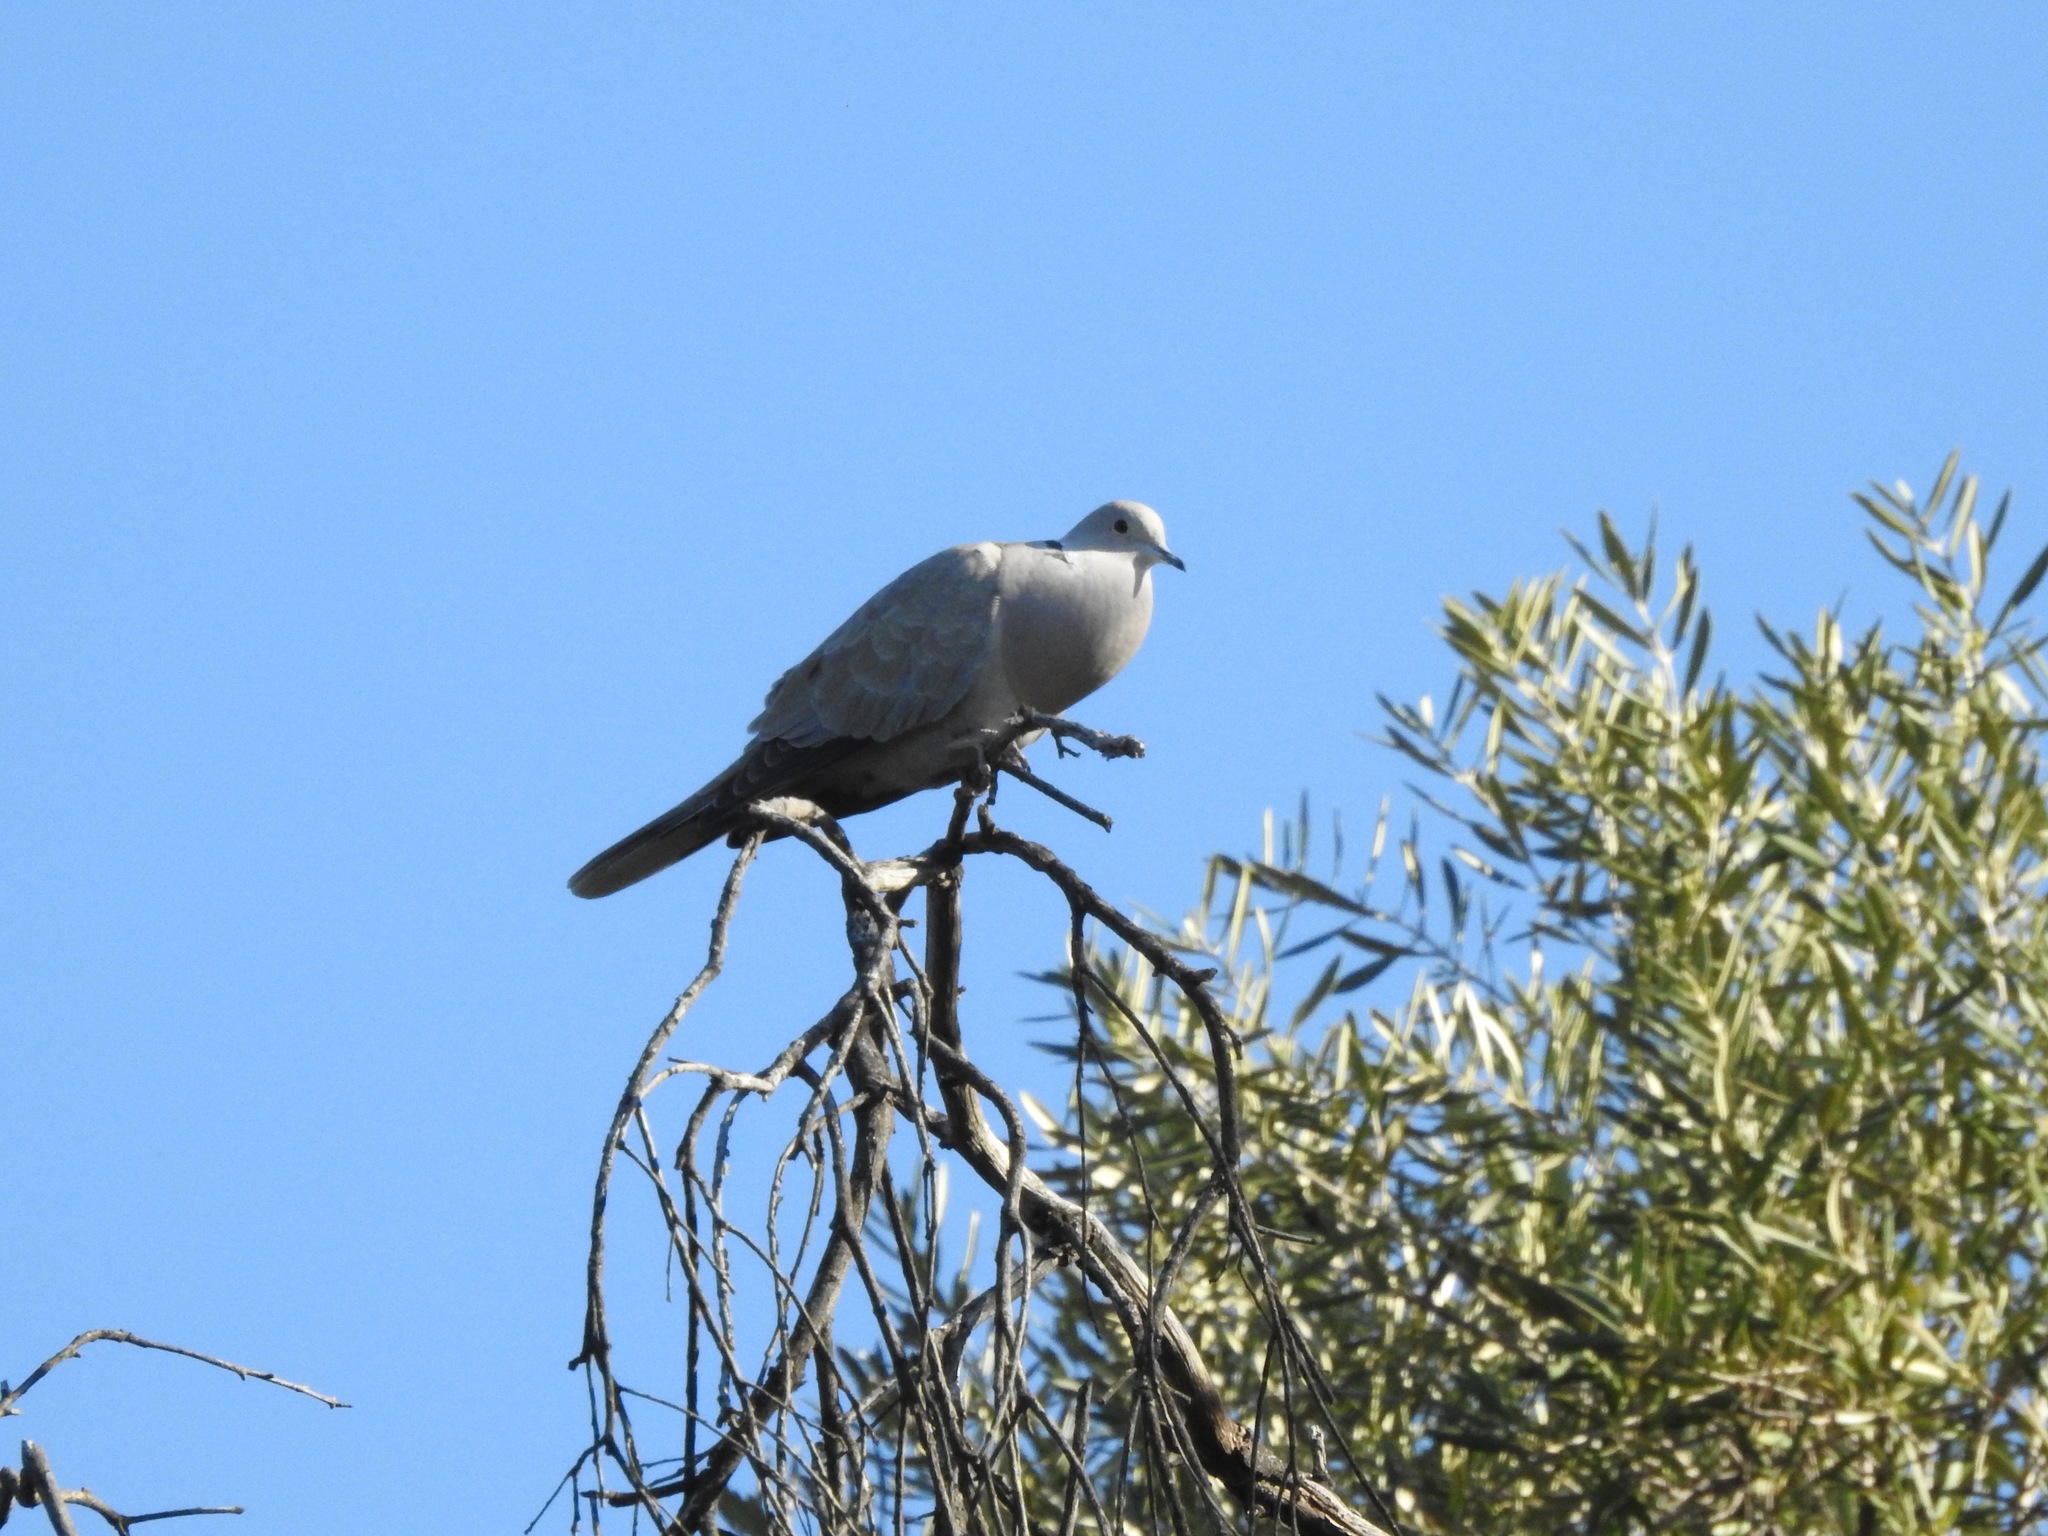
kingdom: Animalia
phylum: Chordata
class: Aves
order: Columbiformes
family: Columbidae
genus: Streptopelia
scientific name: Streptopelia decaocto
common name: Eurasian collared dove
